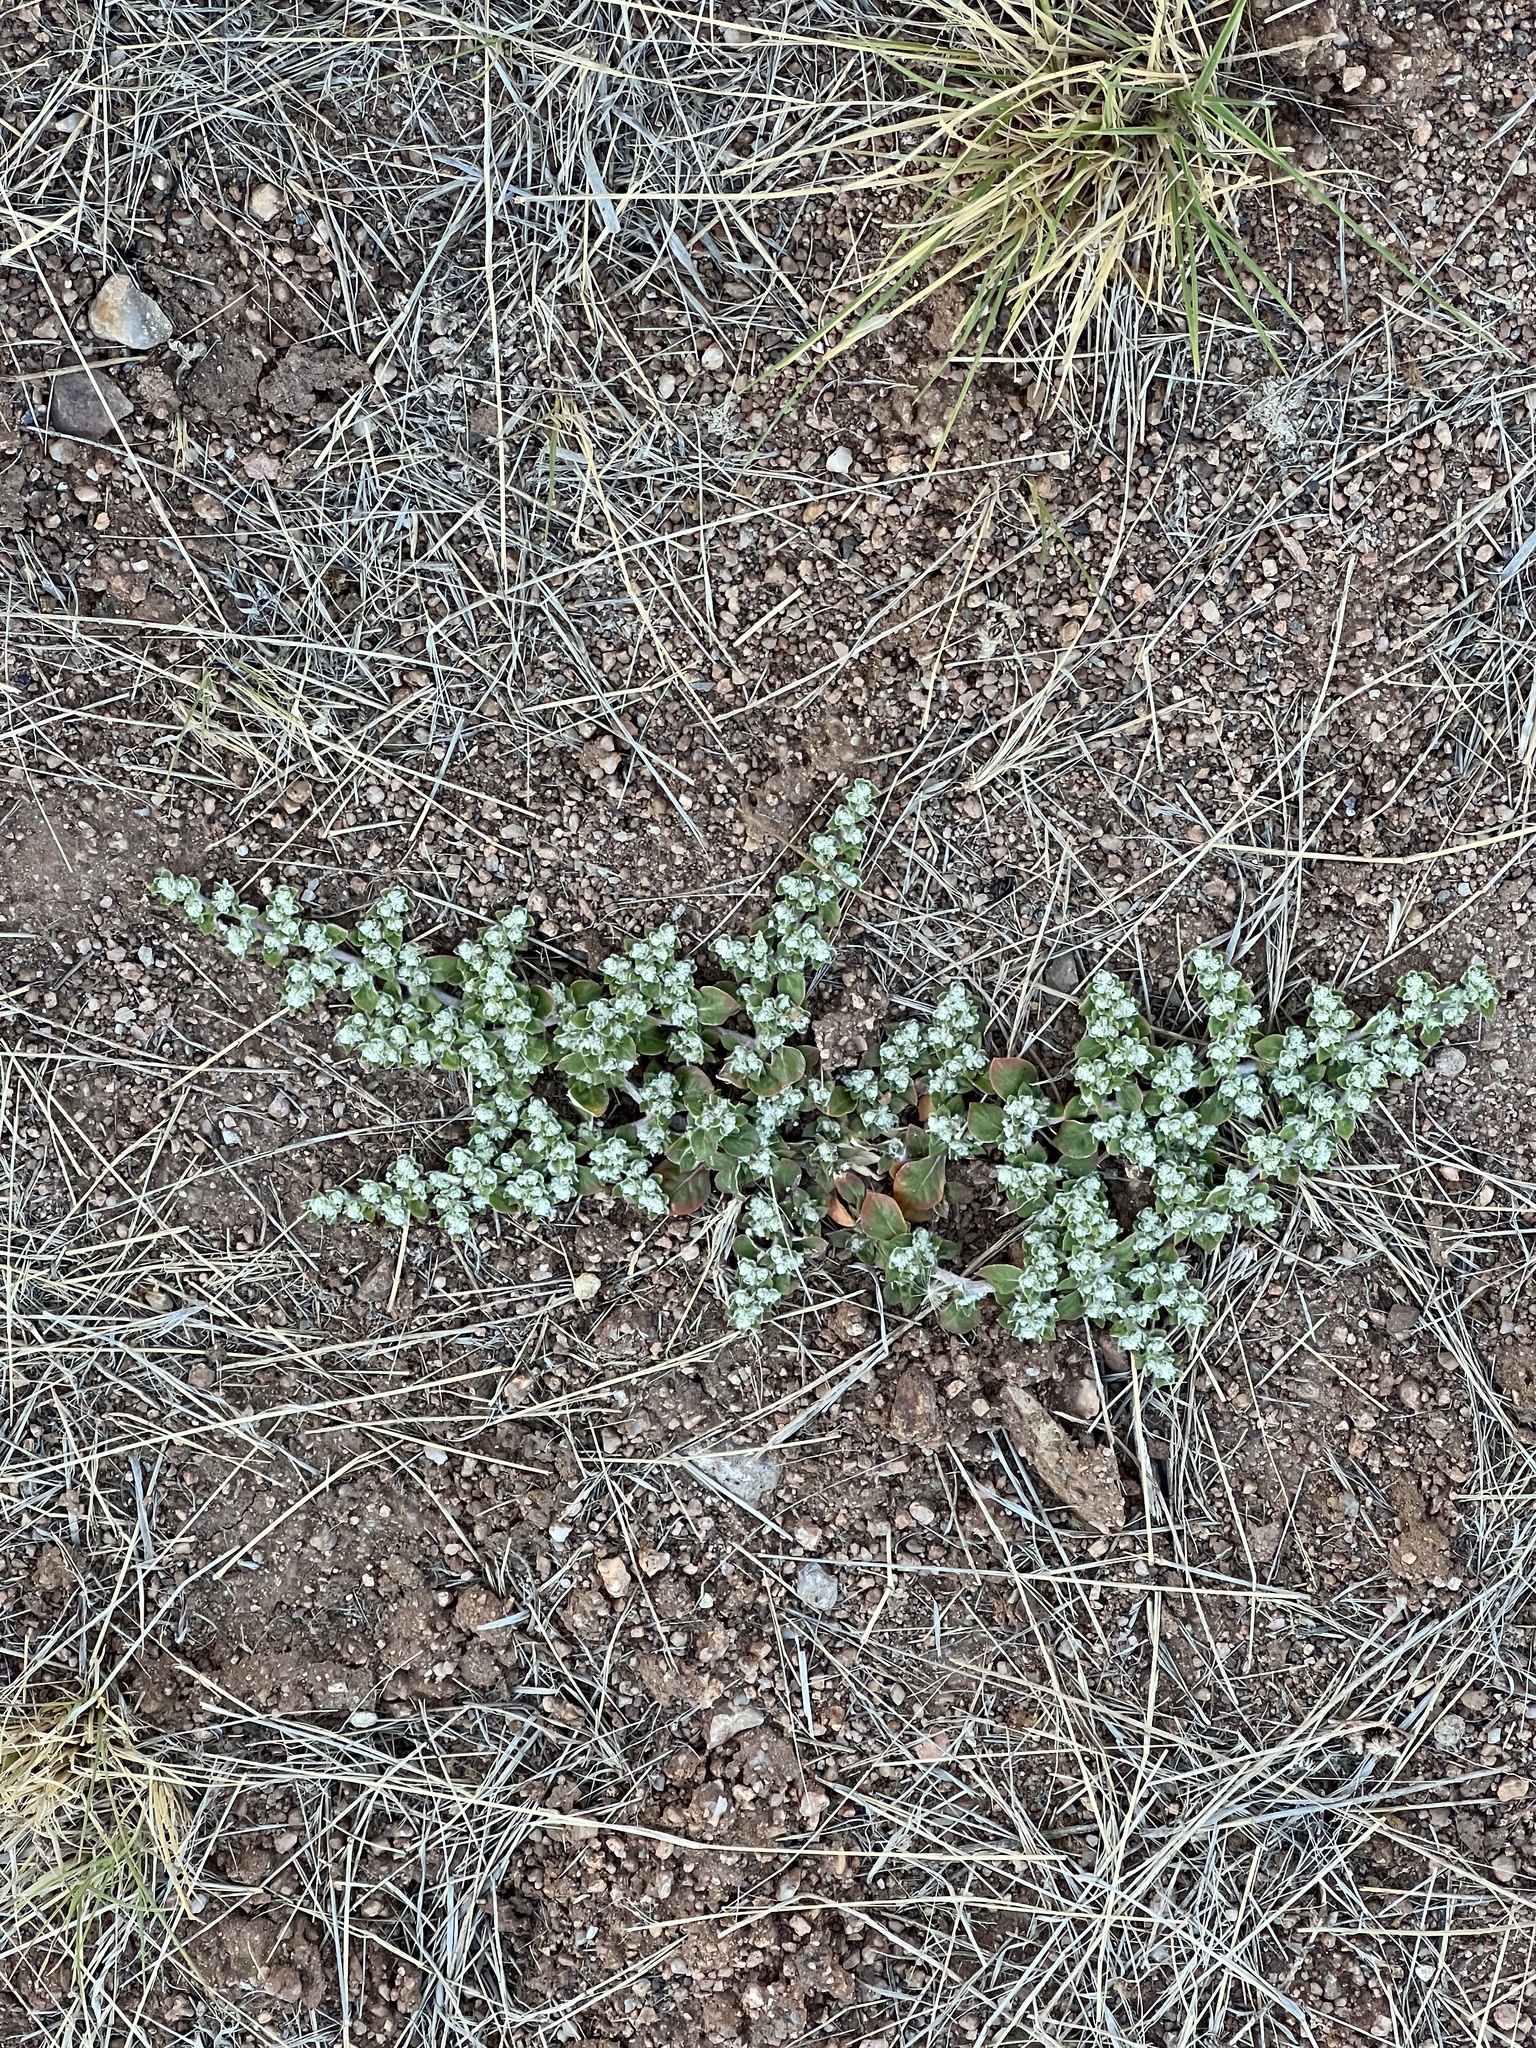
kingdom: Plantae
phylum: Tracheophyta
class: Magnoliopsida
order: Caryophyllales
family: Amaranthaceae
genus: Guilleminea
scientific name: Guilleminea densa
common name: Small matweed
